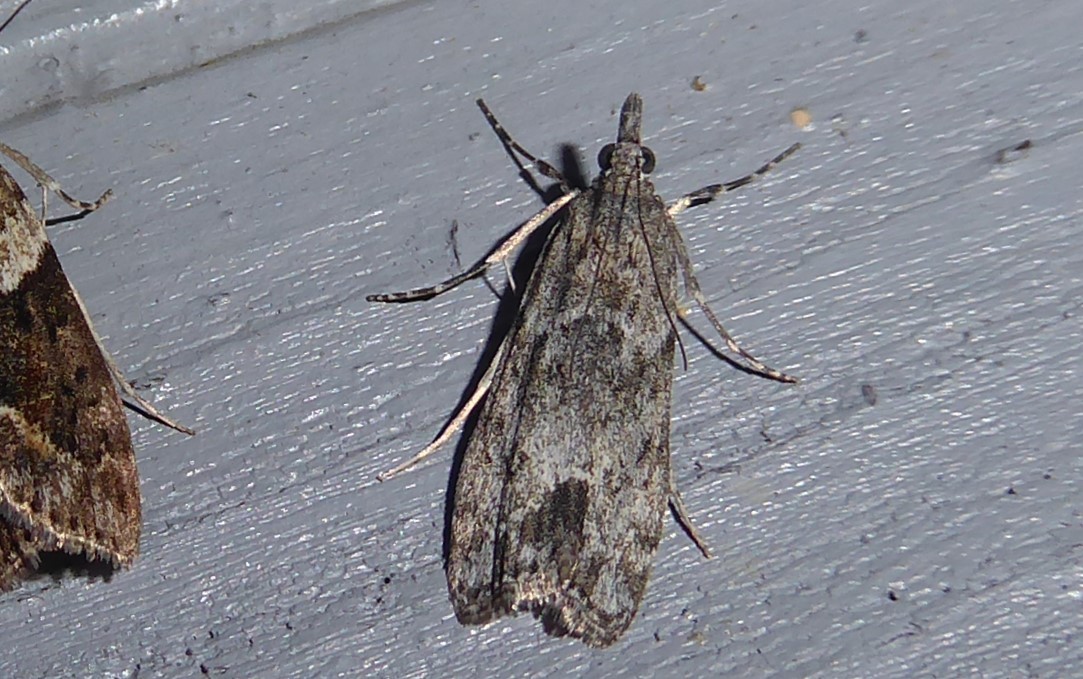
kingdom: Animalia
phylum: Arthropoda
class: Insecta
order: Lepidoptera
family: Crambidae
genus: Eudonia
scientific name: Eudonia rakaiensis
